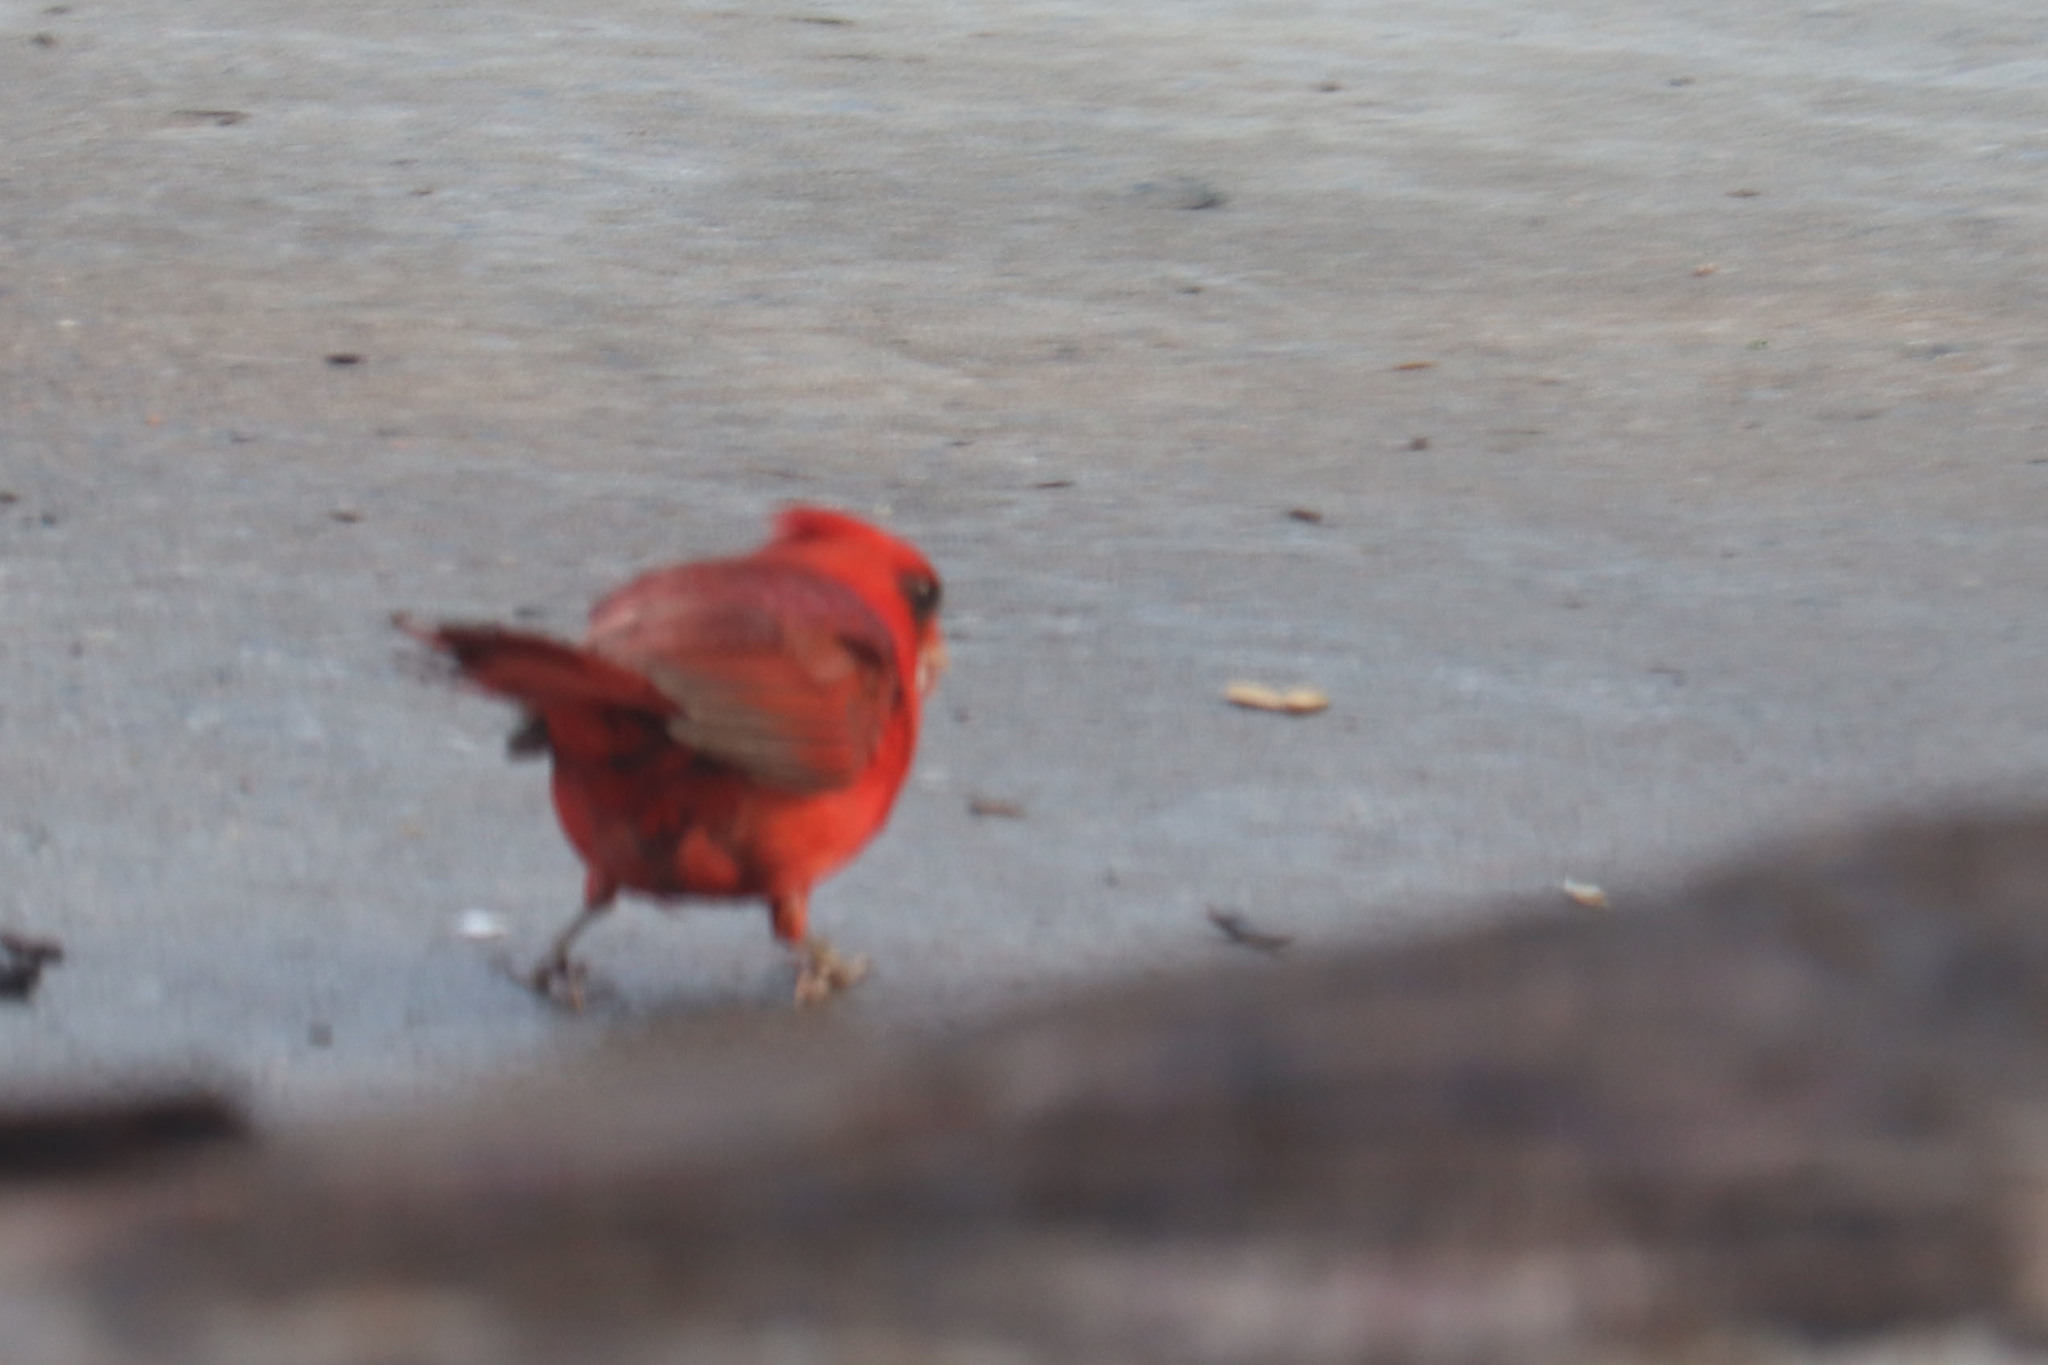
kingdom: Animalia
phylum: Chordata
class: Aves
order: Passeriformes
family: Cardinalidae
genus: Cardinalis
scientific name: Cardinalis cardinalis
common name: Northern cardinal
